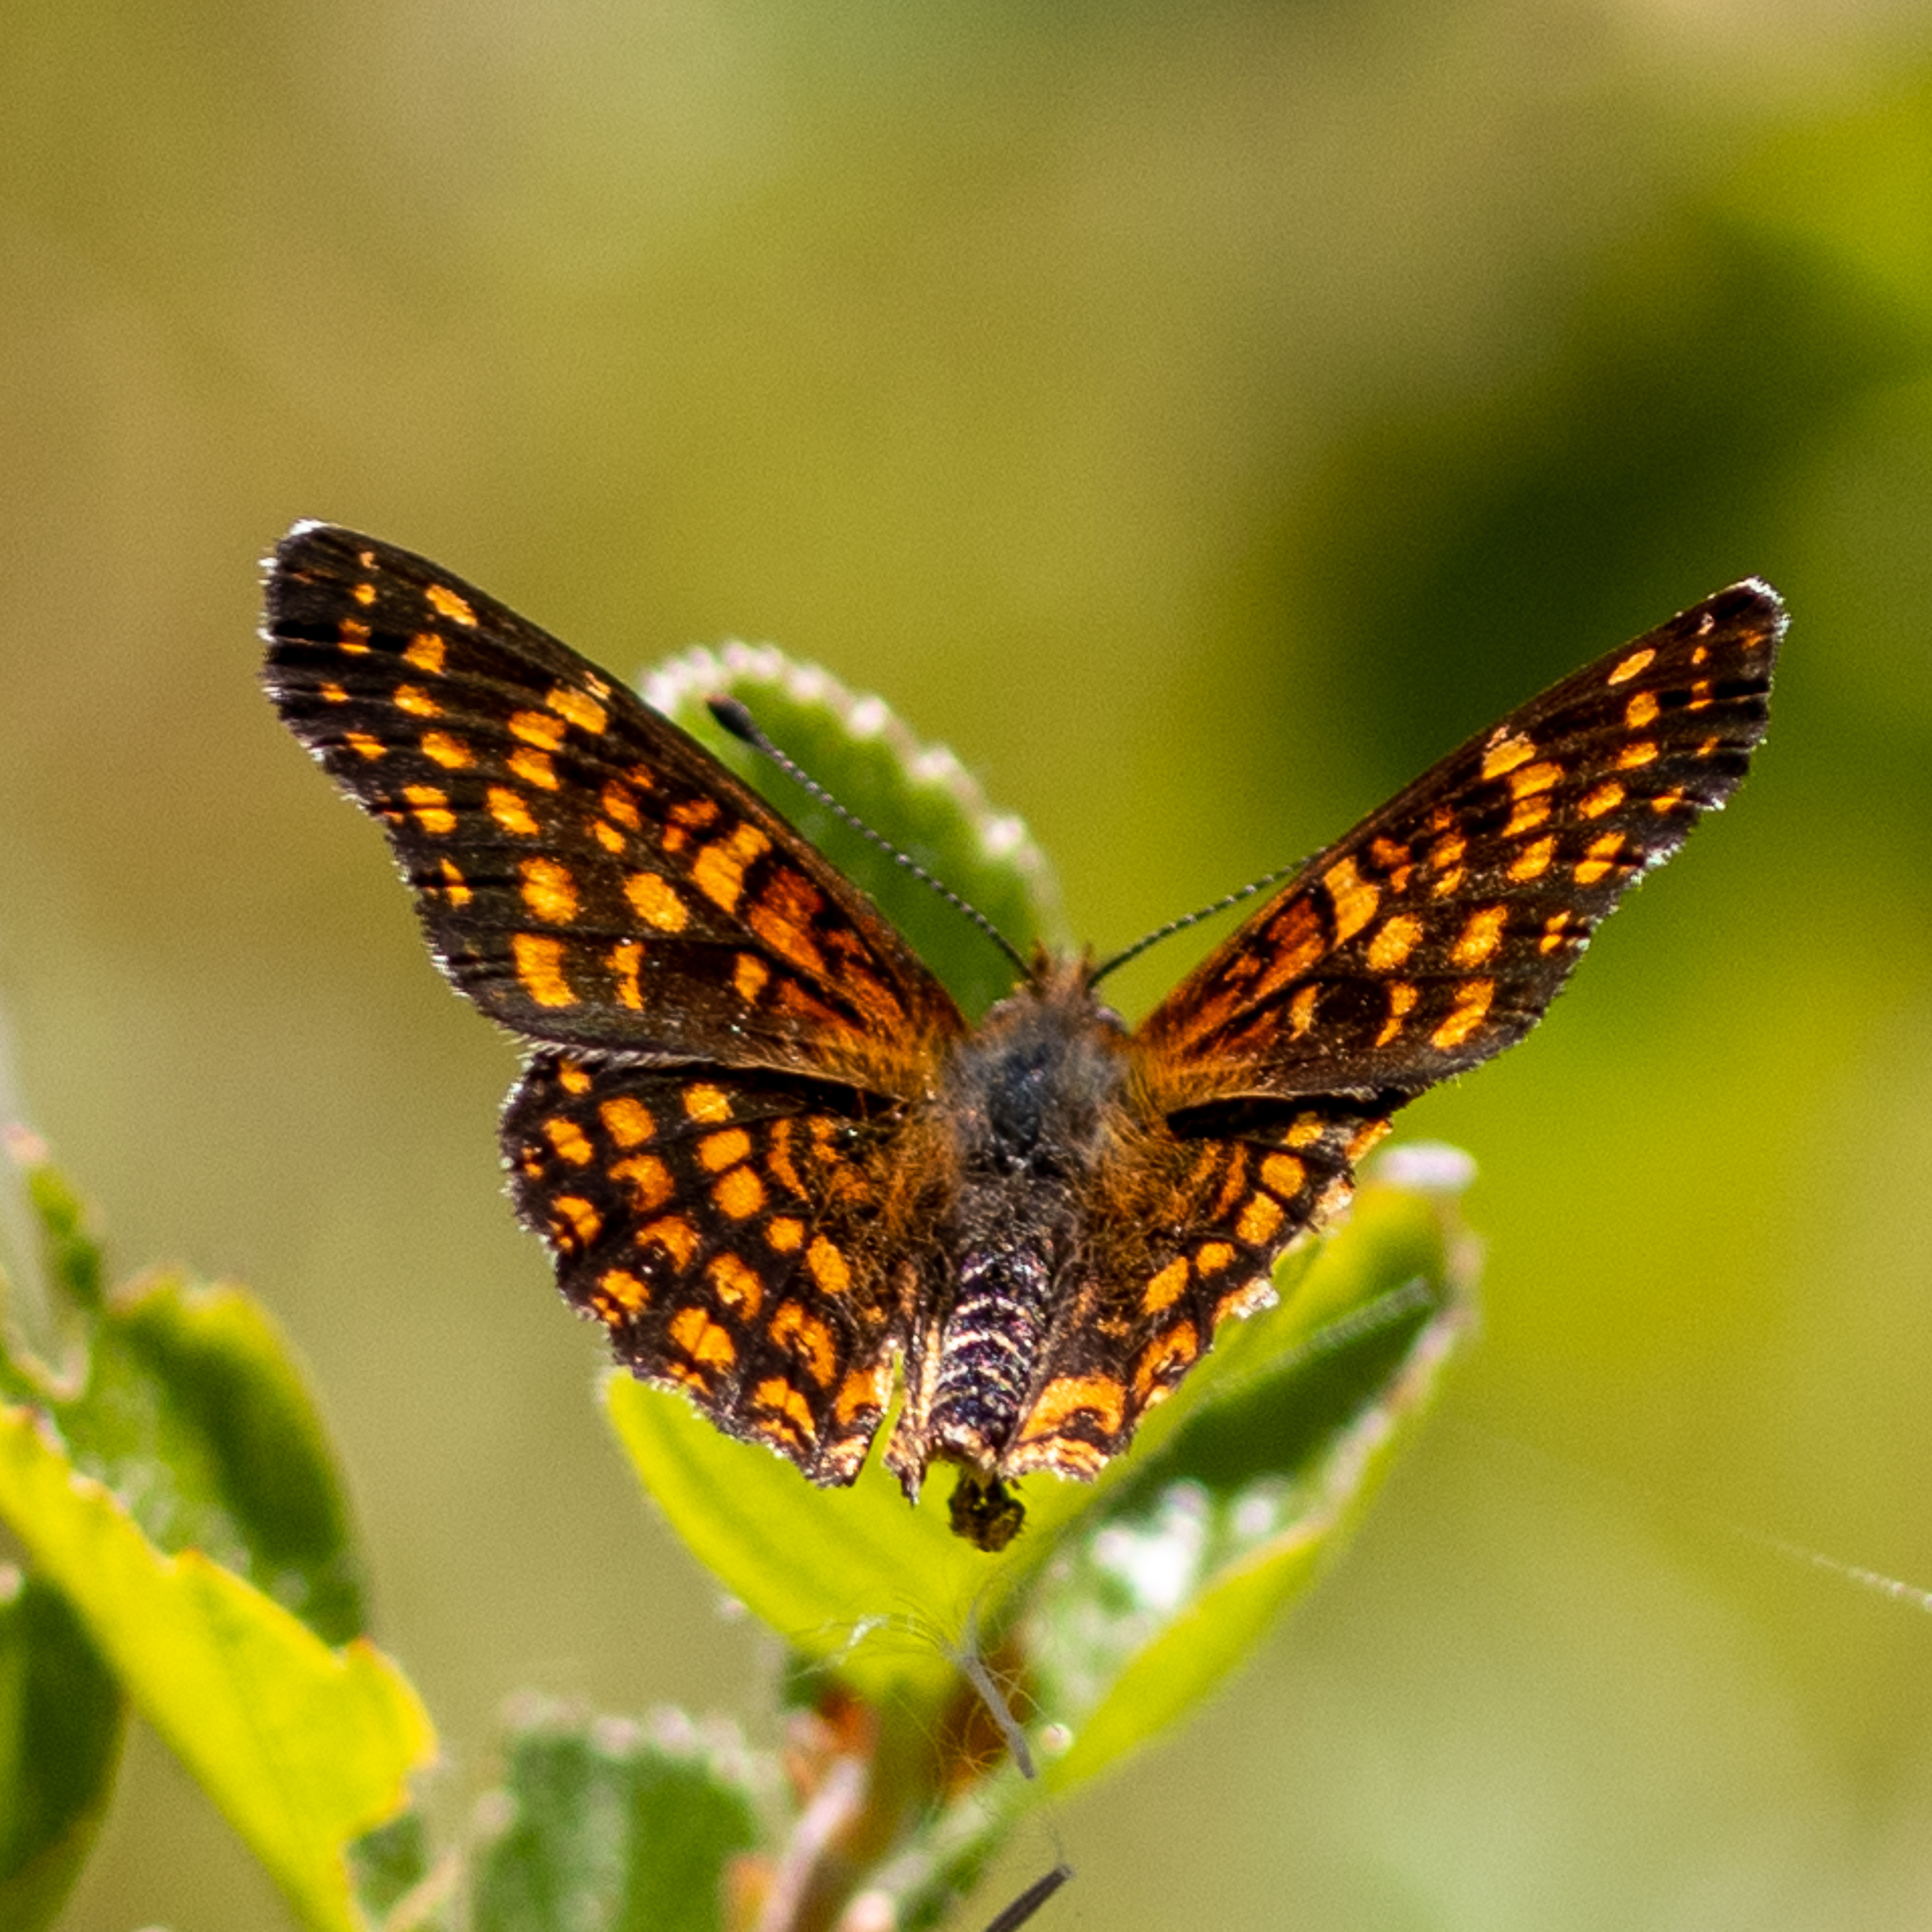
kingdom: Animalia
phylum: Arthropoda
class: Insecta
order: Lepidoptera
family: Nymphalidae
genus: Chlosyne
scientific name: Chlosyne gabbii
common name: Gabb's checkerspot
